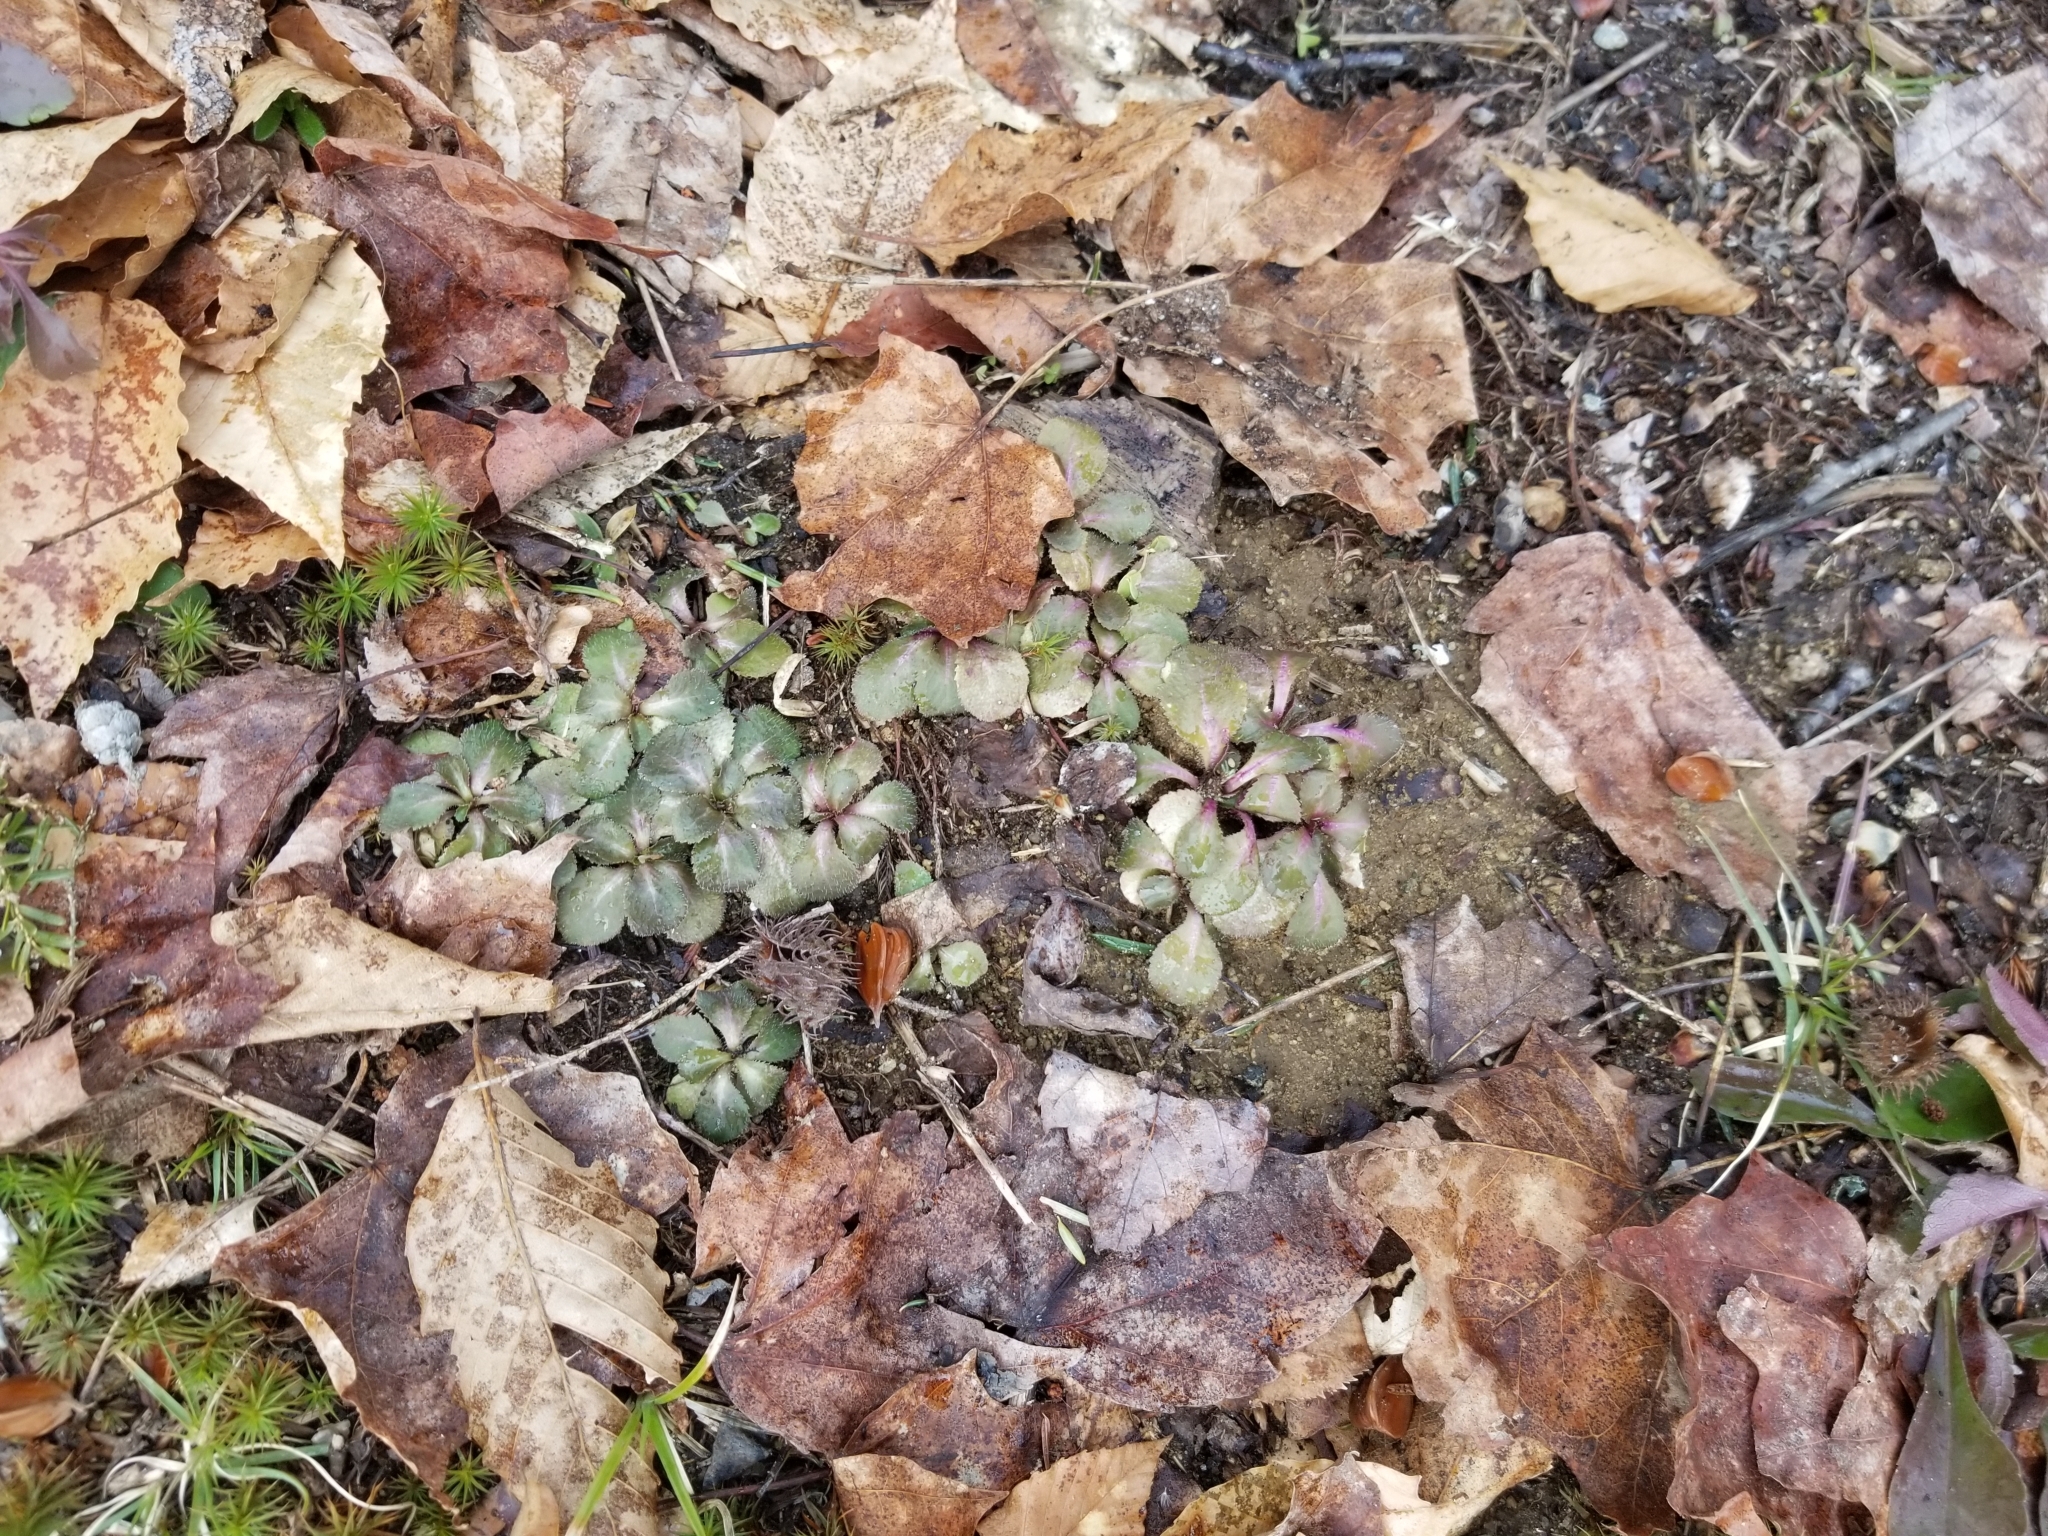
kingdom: Plantae
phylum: Tracheophyta
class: Magnoliopsida
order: Saxifragales
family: Saxifragaceae
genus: Micranthes
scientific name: Micranthes virginiensis
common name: Early saxifrage
